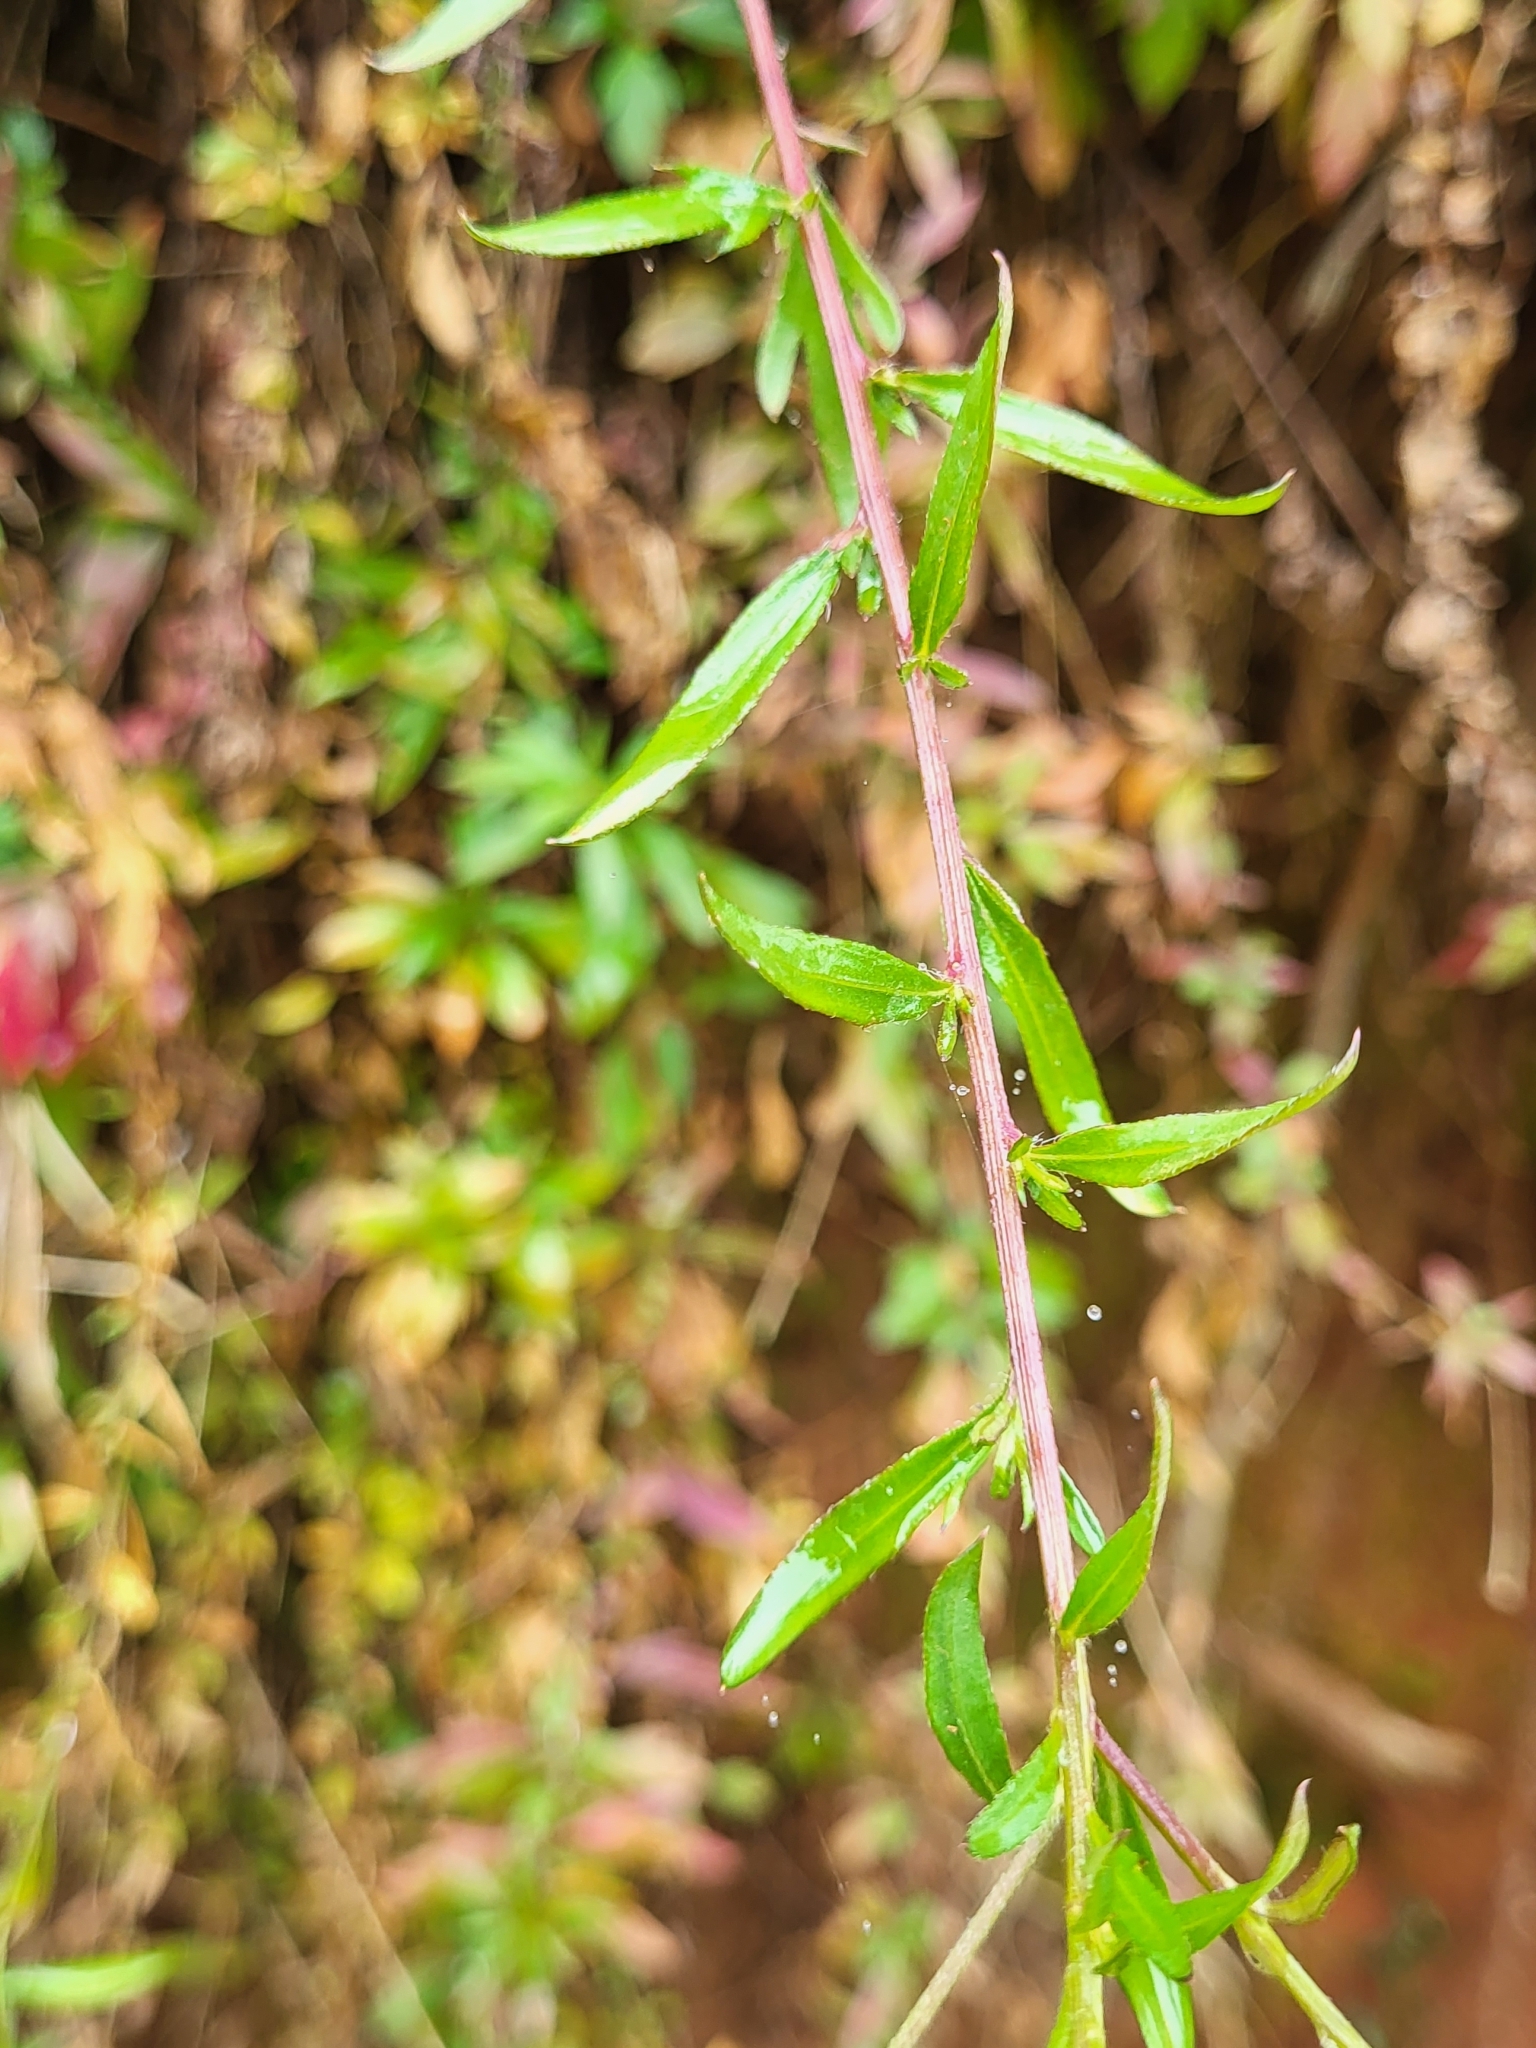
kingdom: Plantae
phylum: Tracheophyta
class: Magnoliopsida
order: Asterales
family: Asteraceae
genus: Erigeron
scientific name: Erigeron karvinskianus
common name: Mexican fleabane
